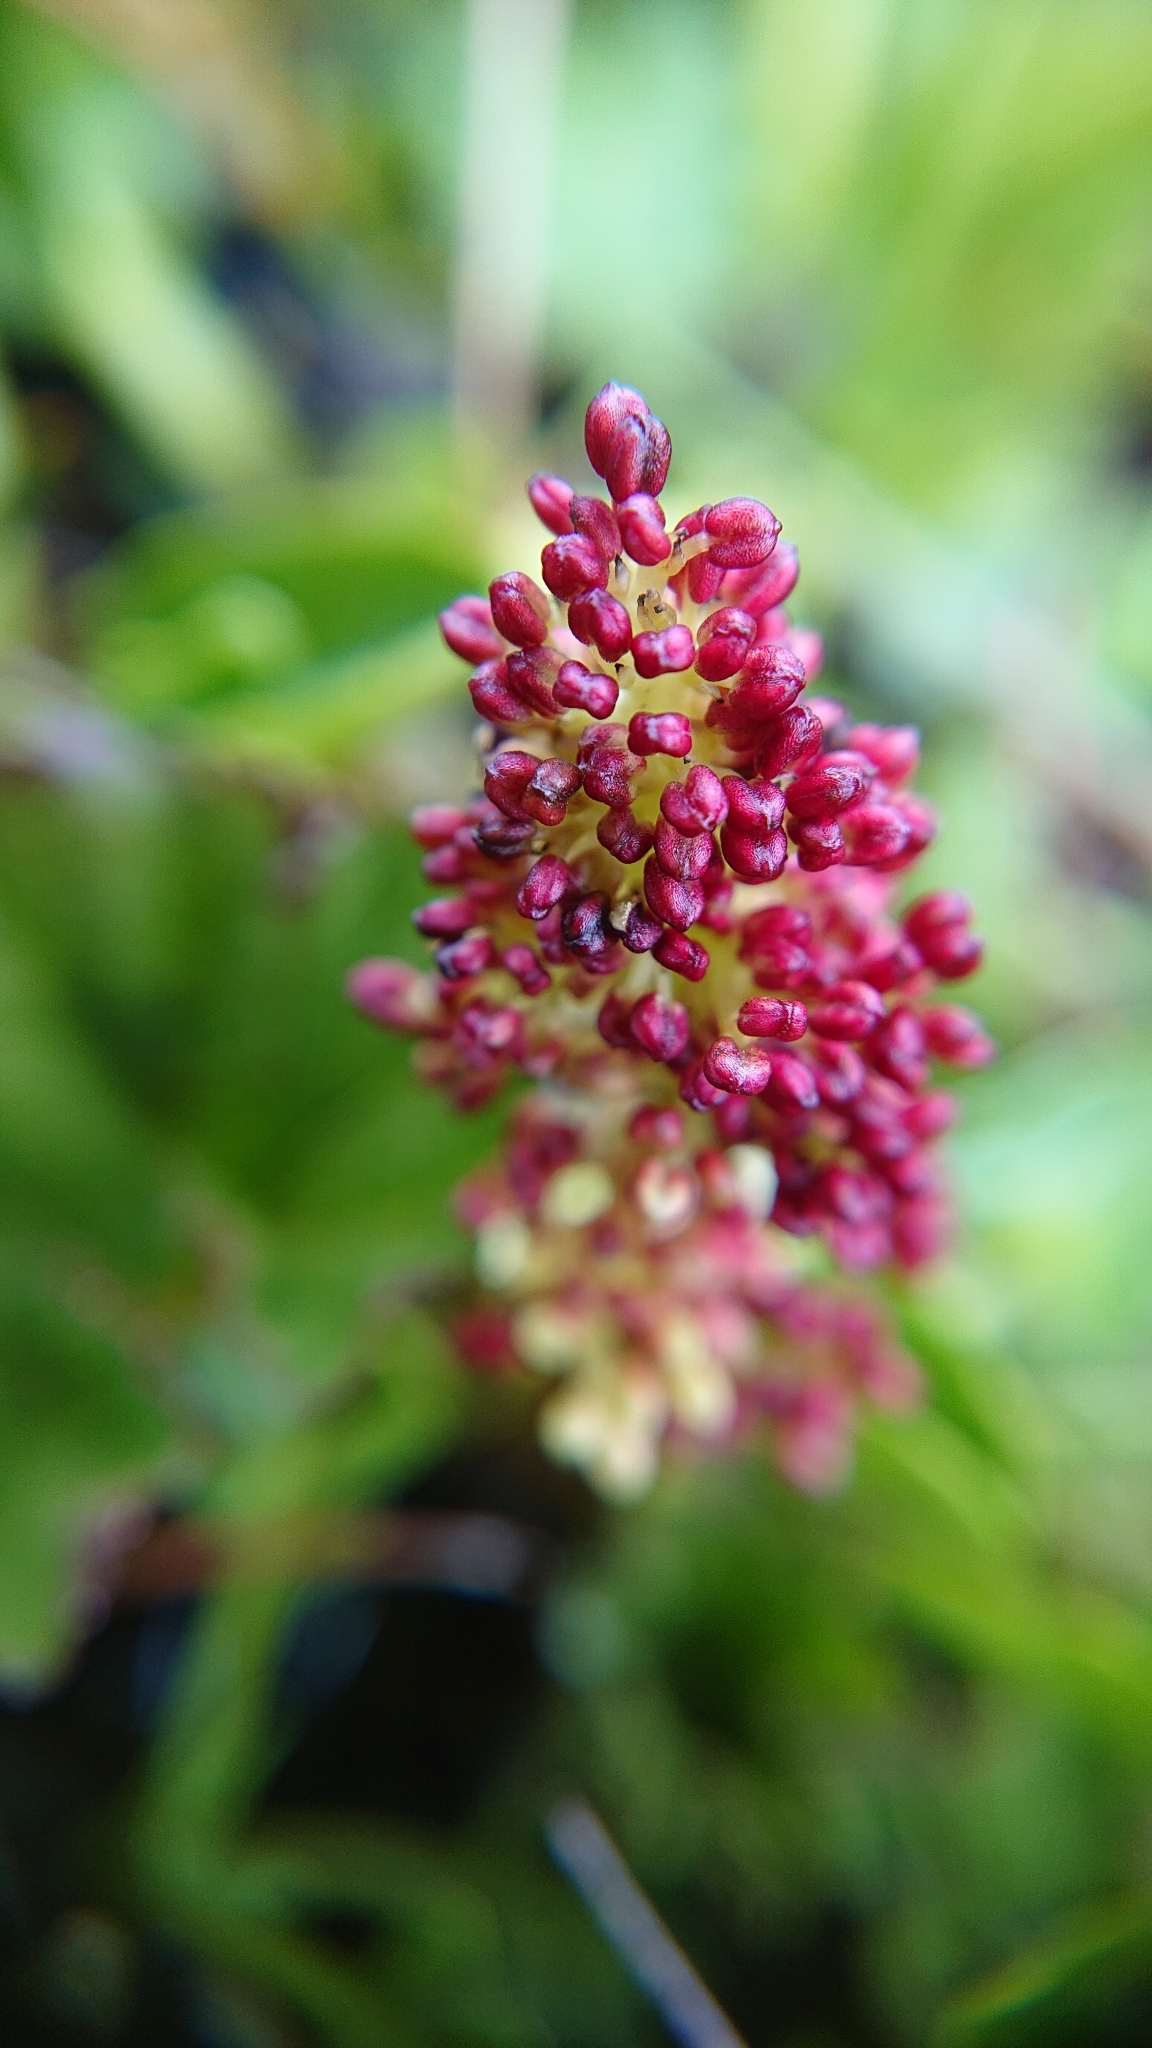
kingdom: Plantae
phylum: Tracheophyta
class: Magnoliopsida
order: Gunnerales
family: Gunneraceae
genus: Gunnera
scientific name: Gunnera magellanica
